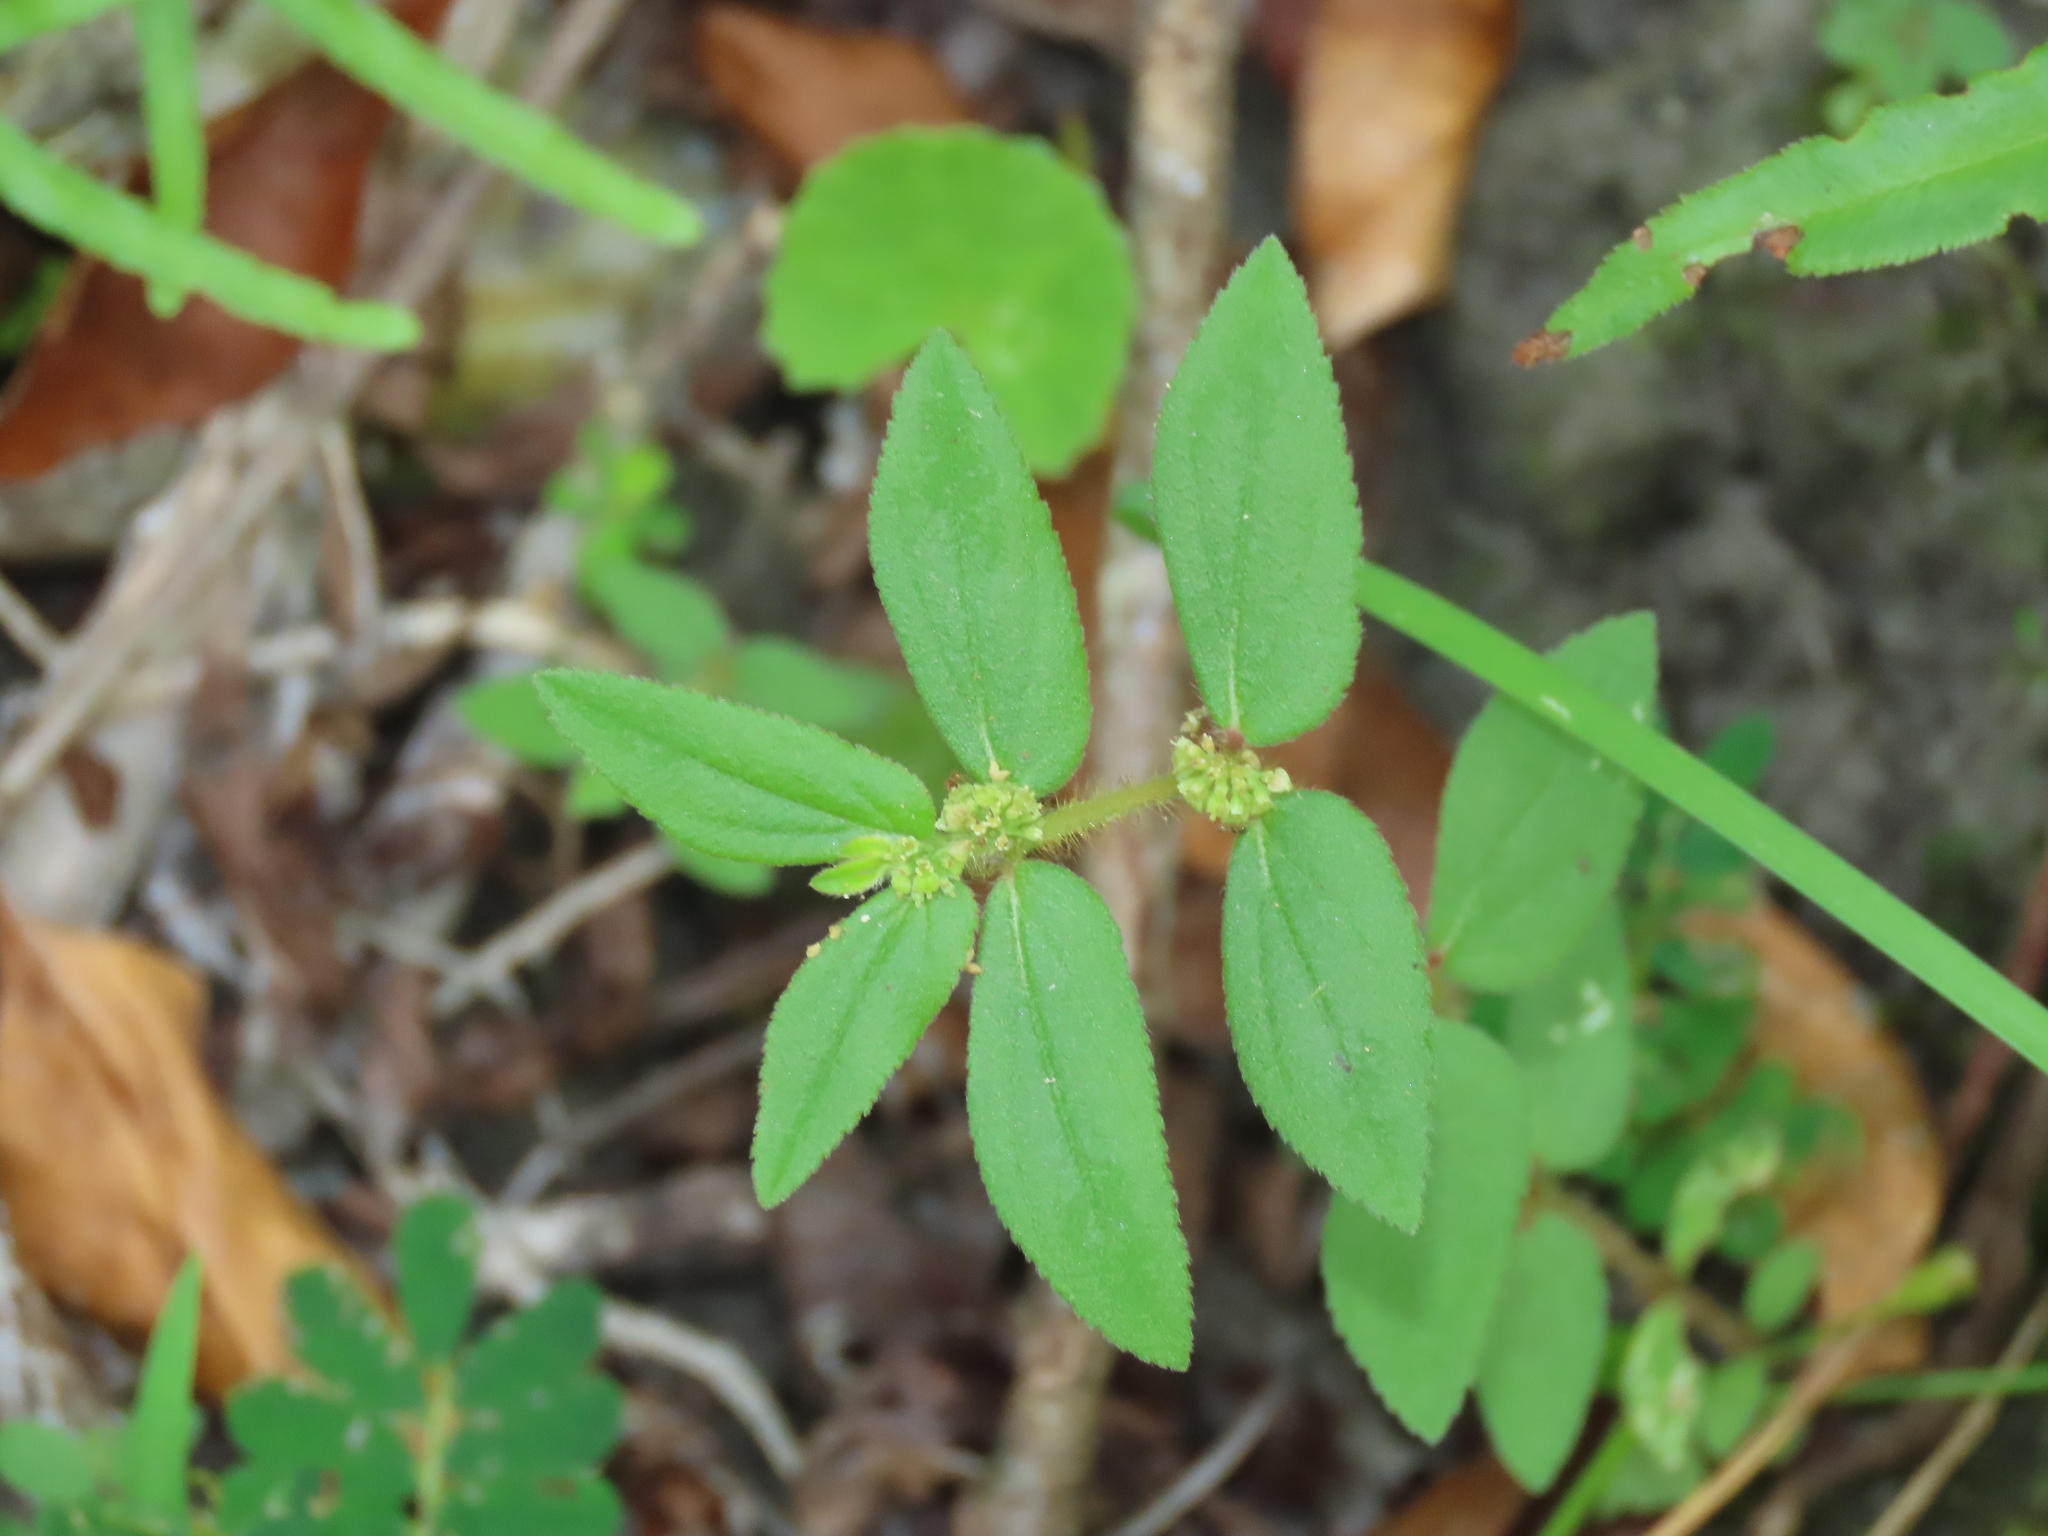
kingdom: Plantae
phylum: Tracheophyta
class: Magnoliopsida
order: Malpighiales
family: Euphorbiaceae
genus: Euphorbia
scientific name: Euphorbia hirta
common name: Pillpod sandmat
